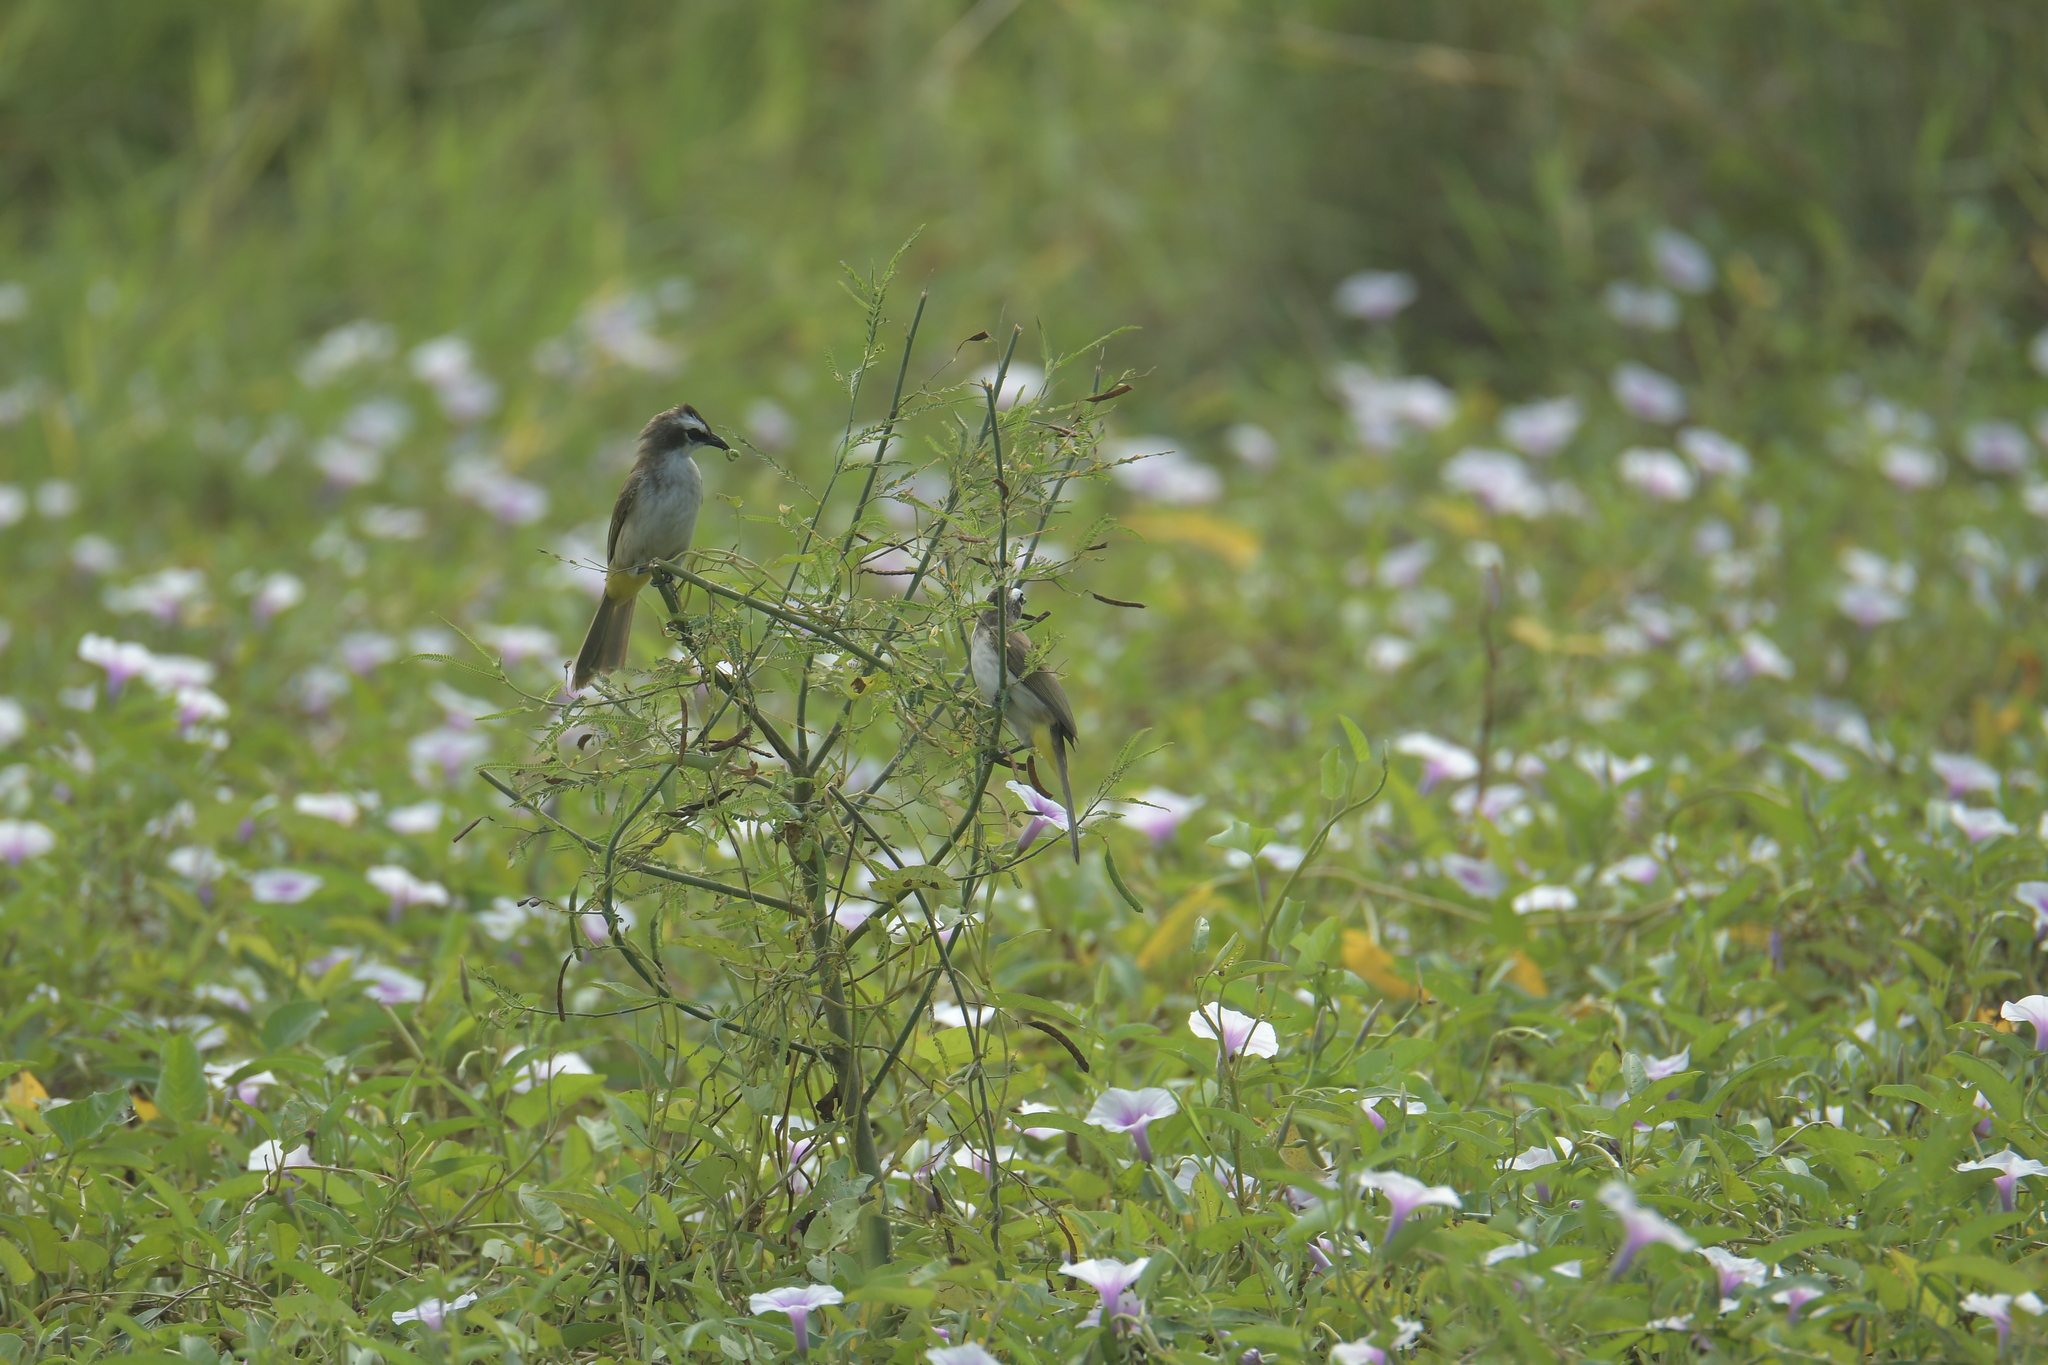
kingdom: Animalia
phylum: Chordata
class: Aves
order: Passeriformes
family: Pycnonotidae
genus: Pycnonotus
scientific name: Pycnonotus goiavier
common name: Yellow-vented bulbul
